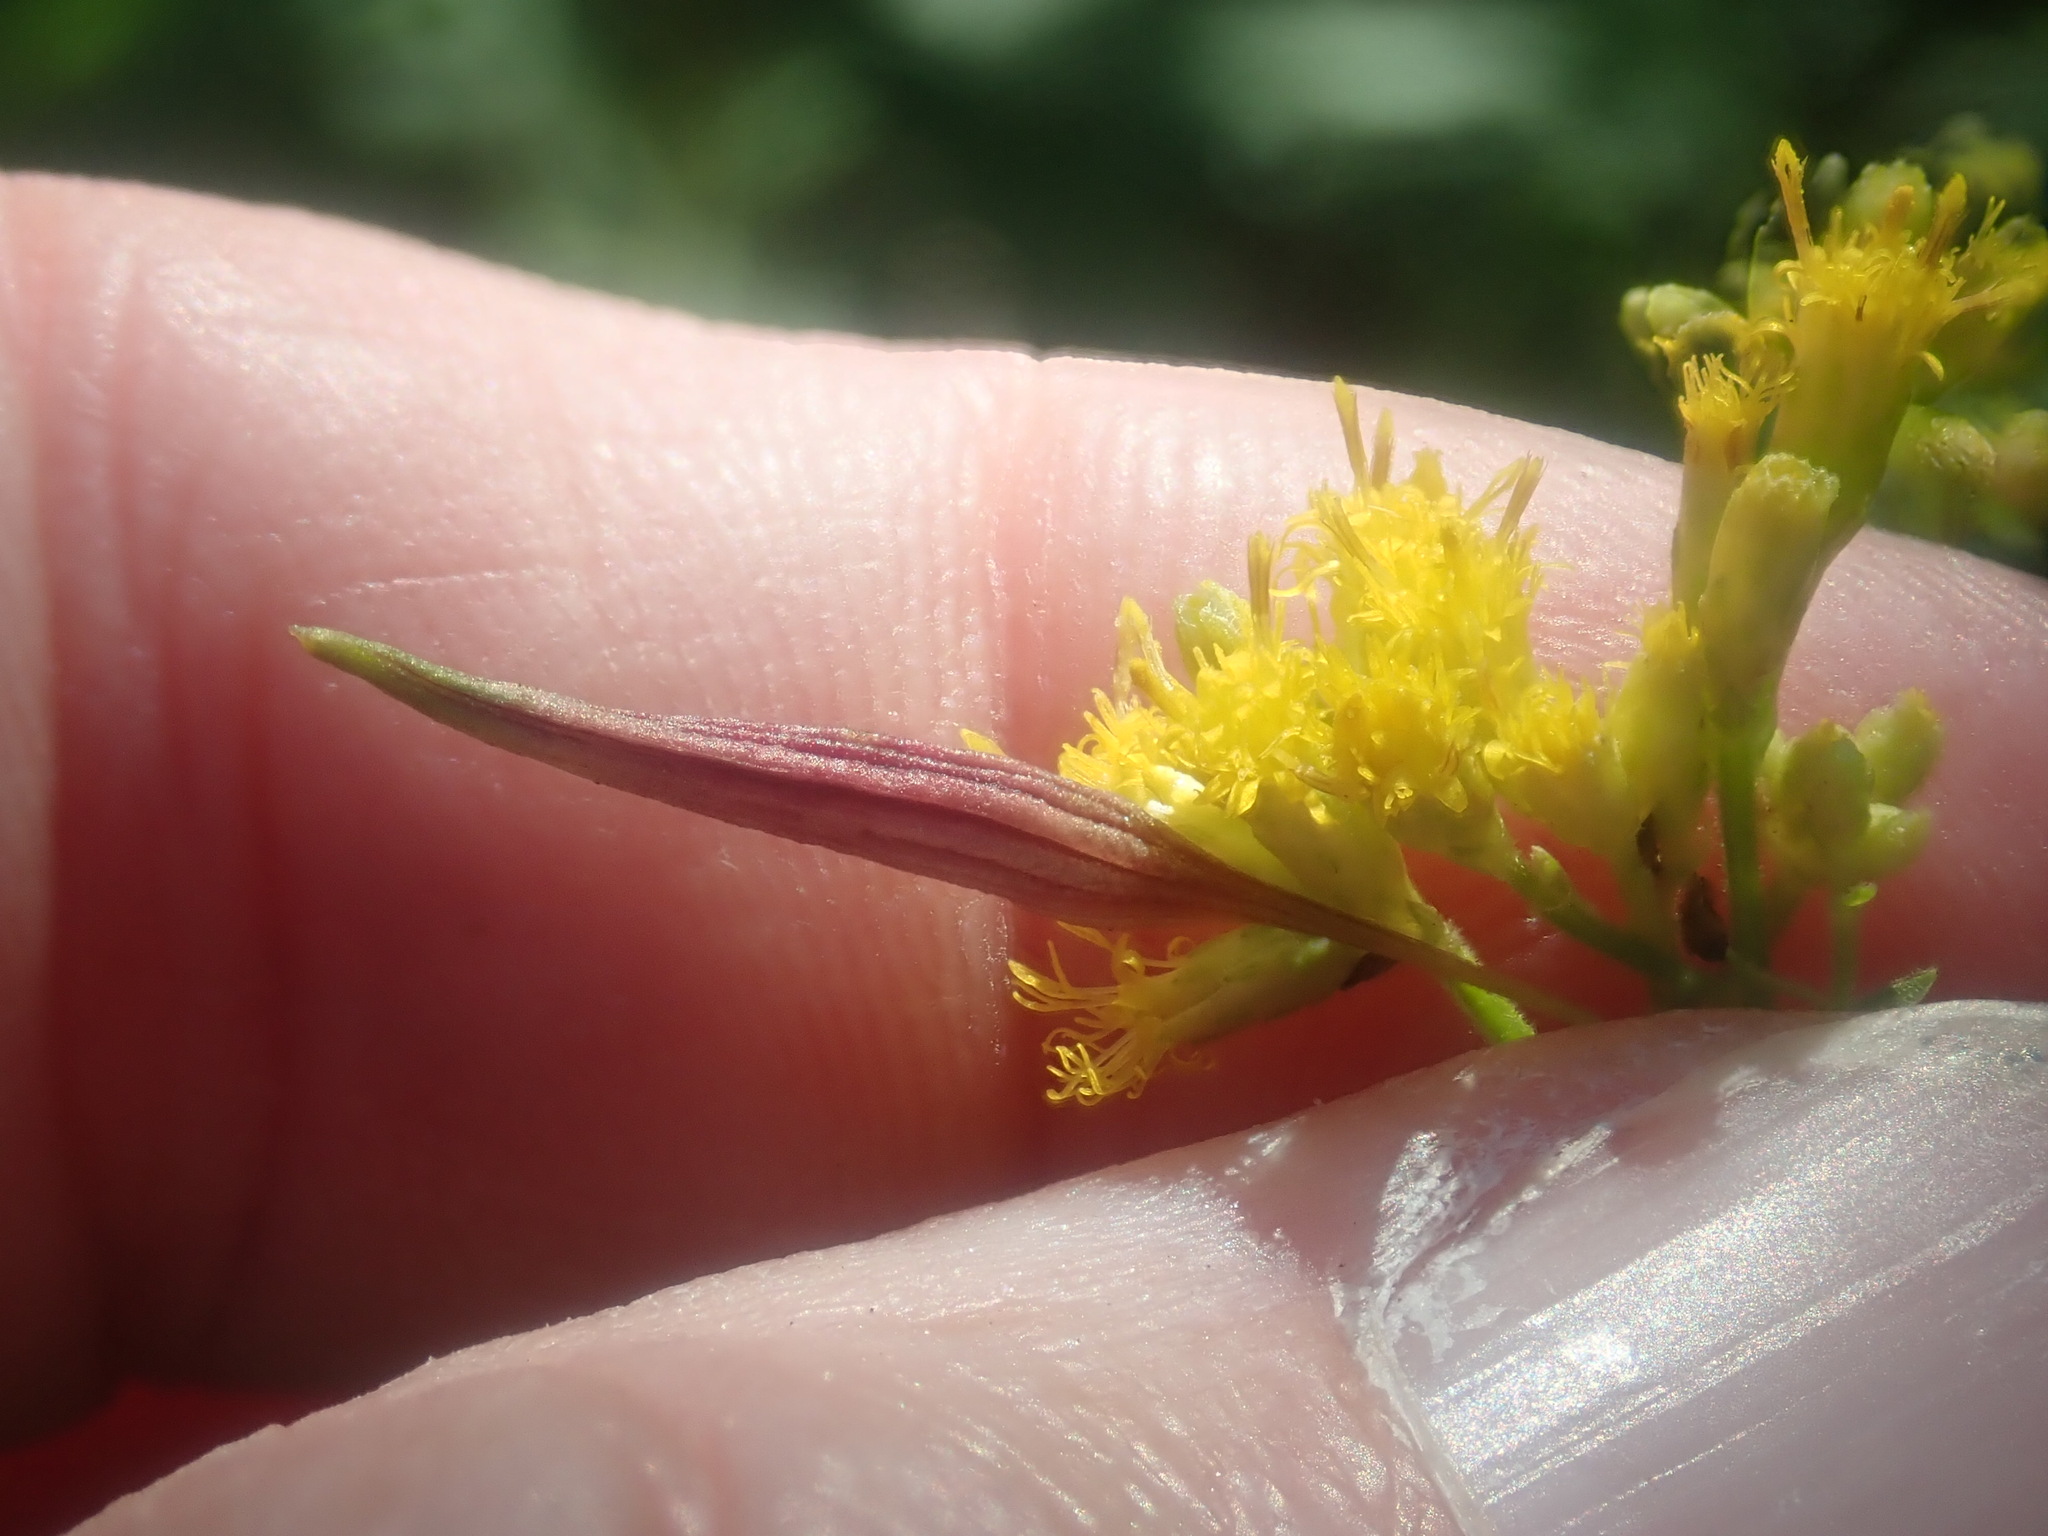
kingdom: Animalia
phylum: Arthropoda
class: Insecta
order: Diptera
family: Cecidomyiidae
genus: Rhopalomyia
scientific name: Rhopalomyia pedicellata
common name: Goldentop pedicellate gall midge
